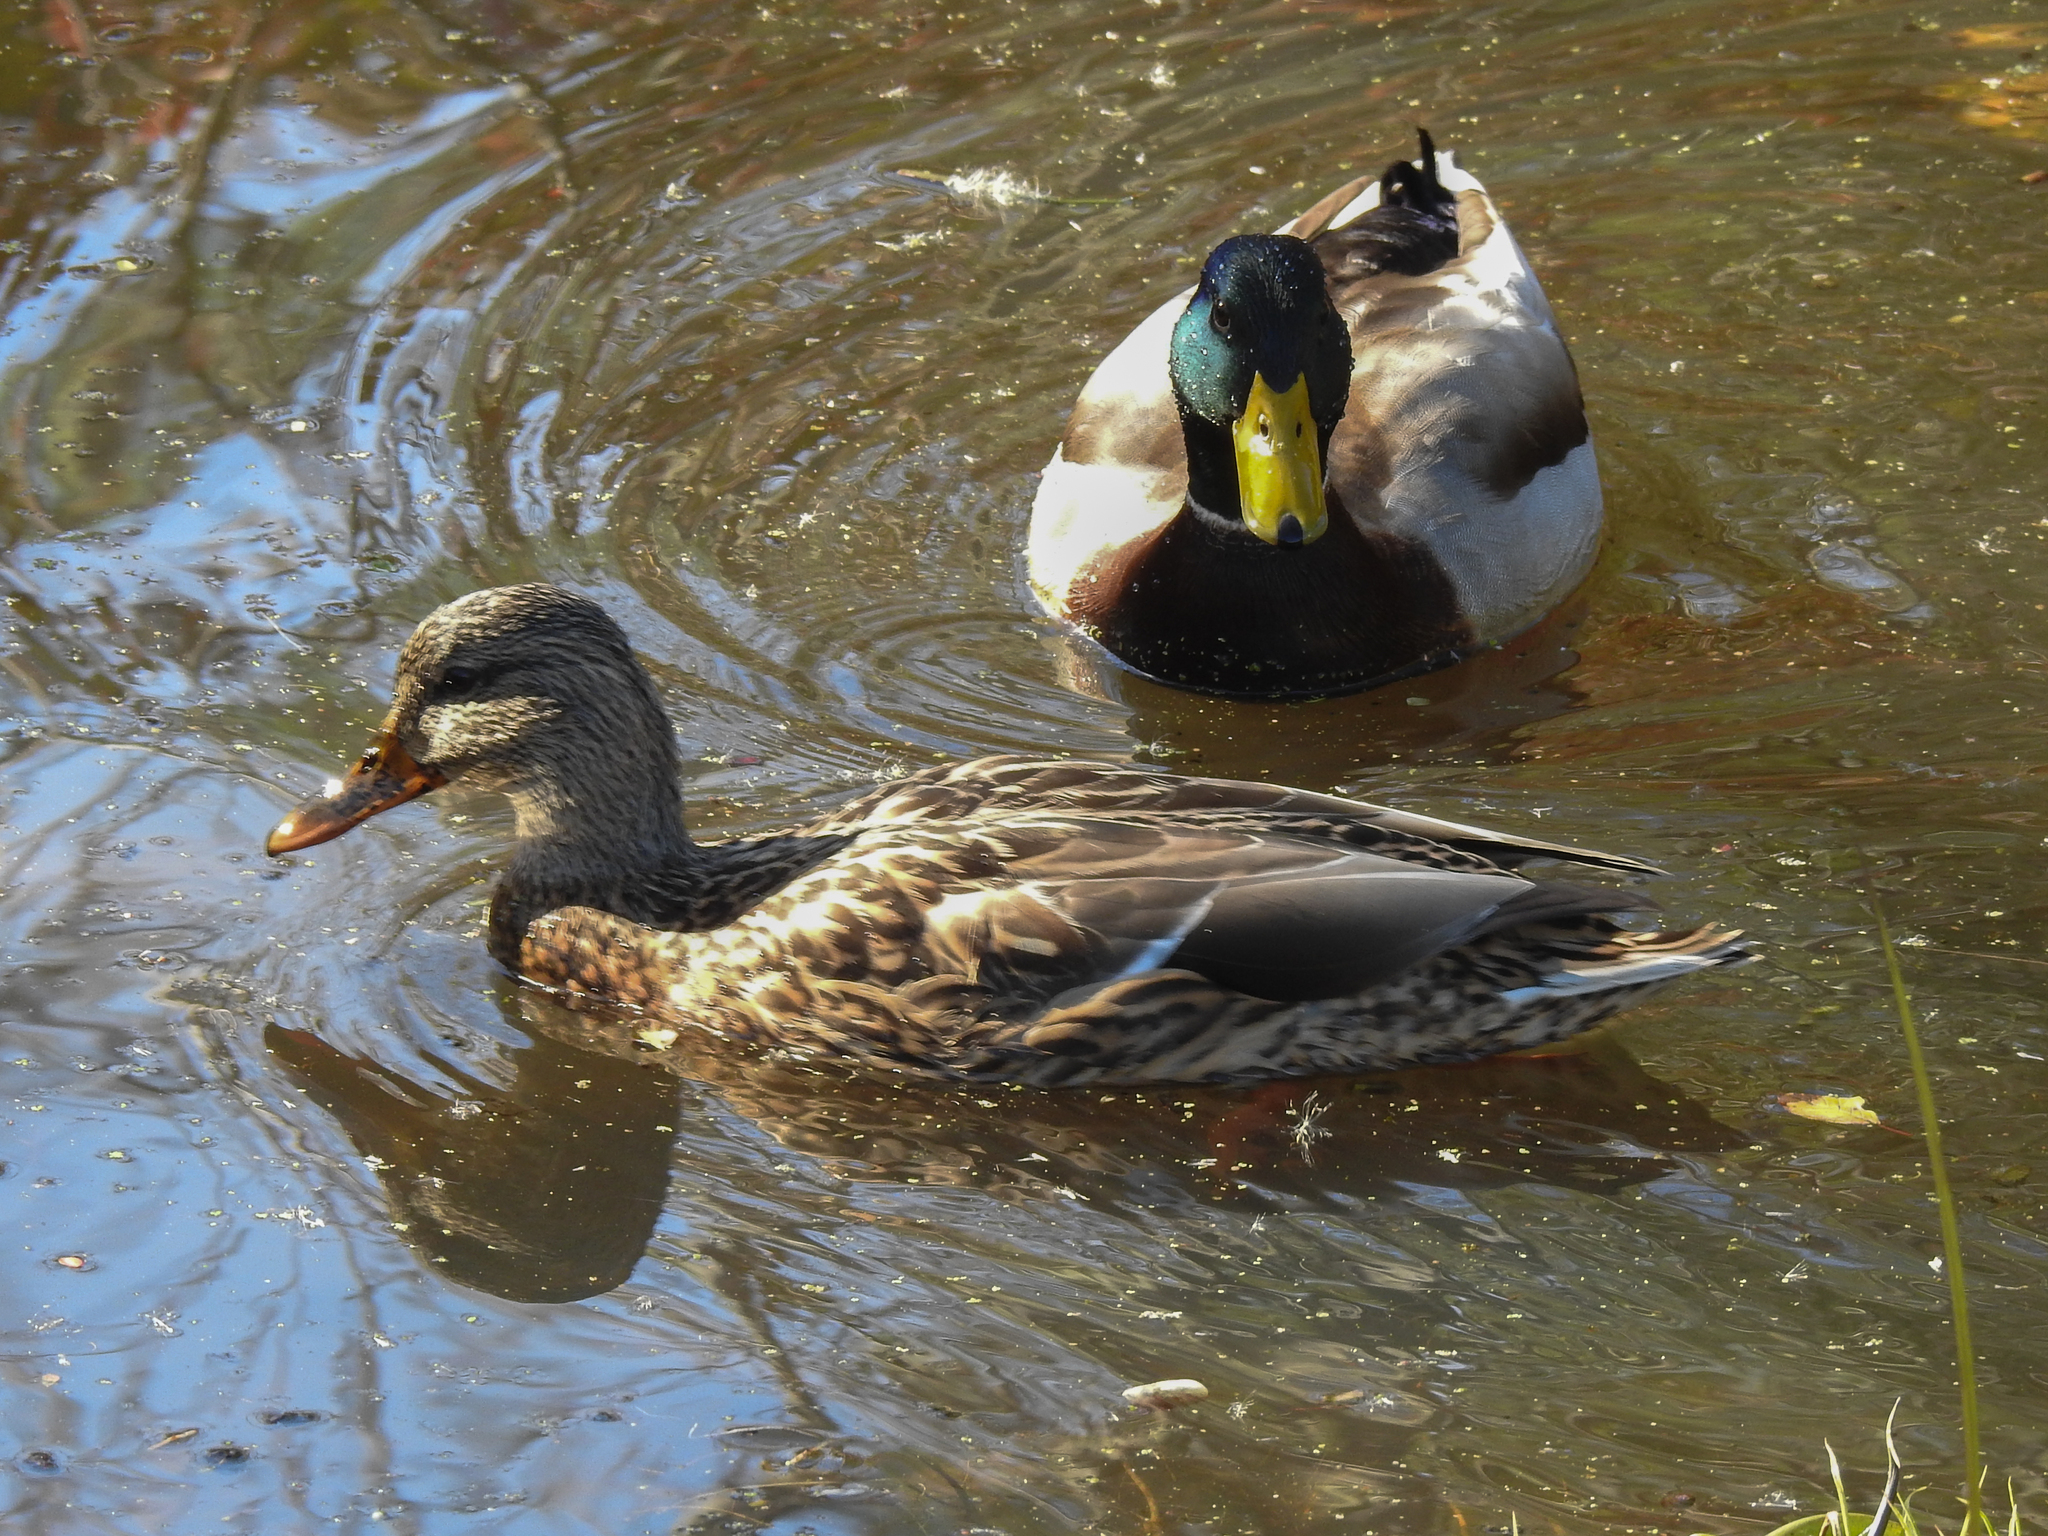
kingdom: Animalia
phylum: Chordata
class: Aves
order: Anseriformes
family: Anatidae
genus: Anas
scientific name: Anas platyrhynchos
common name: Mallard
